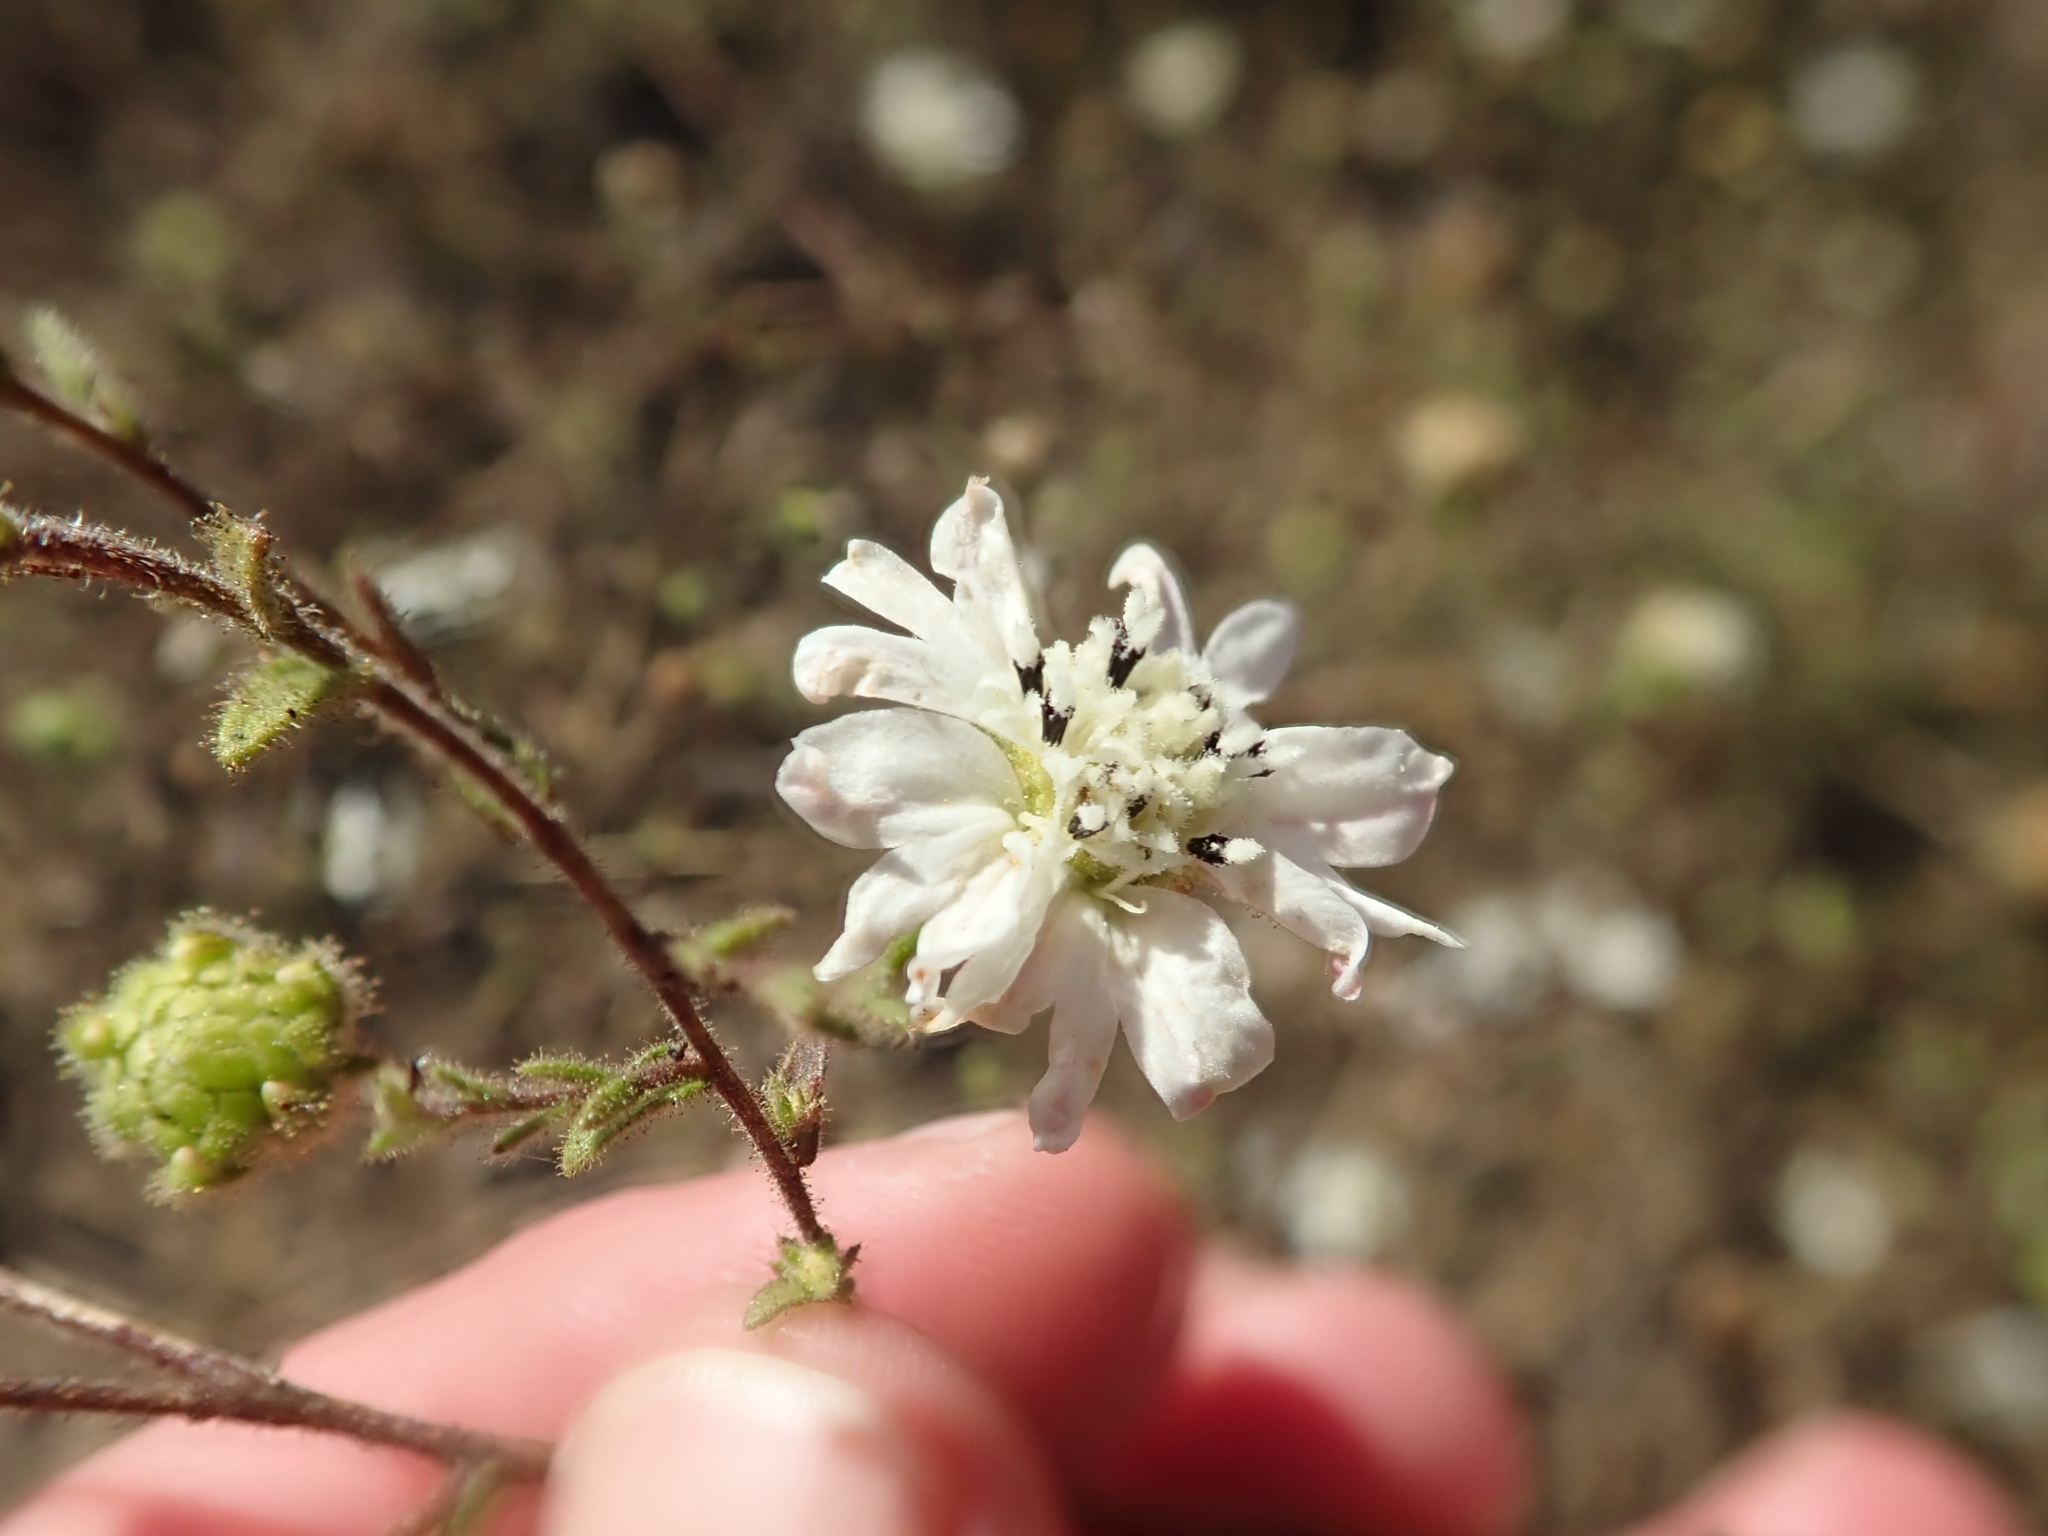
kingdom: Plantae
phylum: Tracheophyta
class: Magnoliopsida
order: Asterales
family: Asteraceae
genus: Hemizonia
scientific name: Hemizonia congesta
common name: Hayfield tarweed
